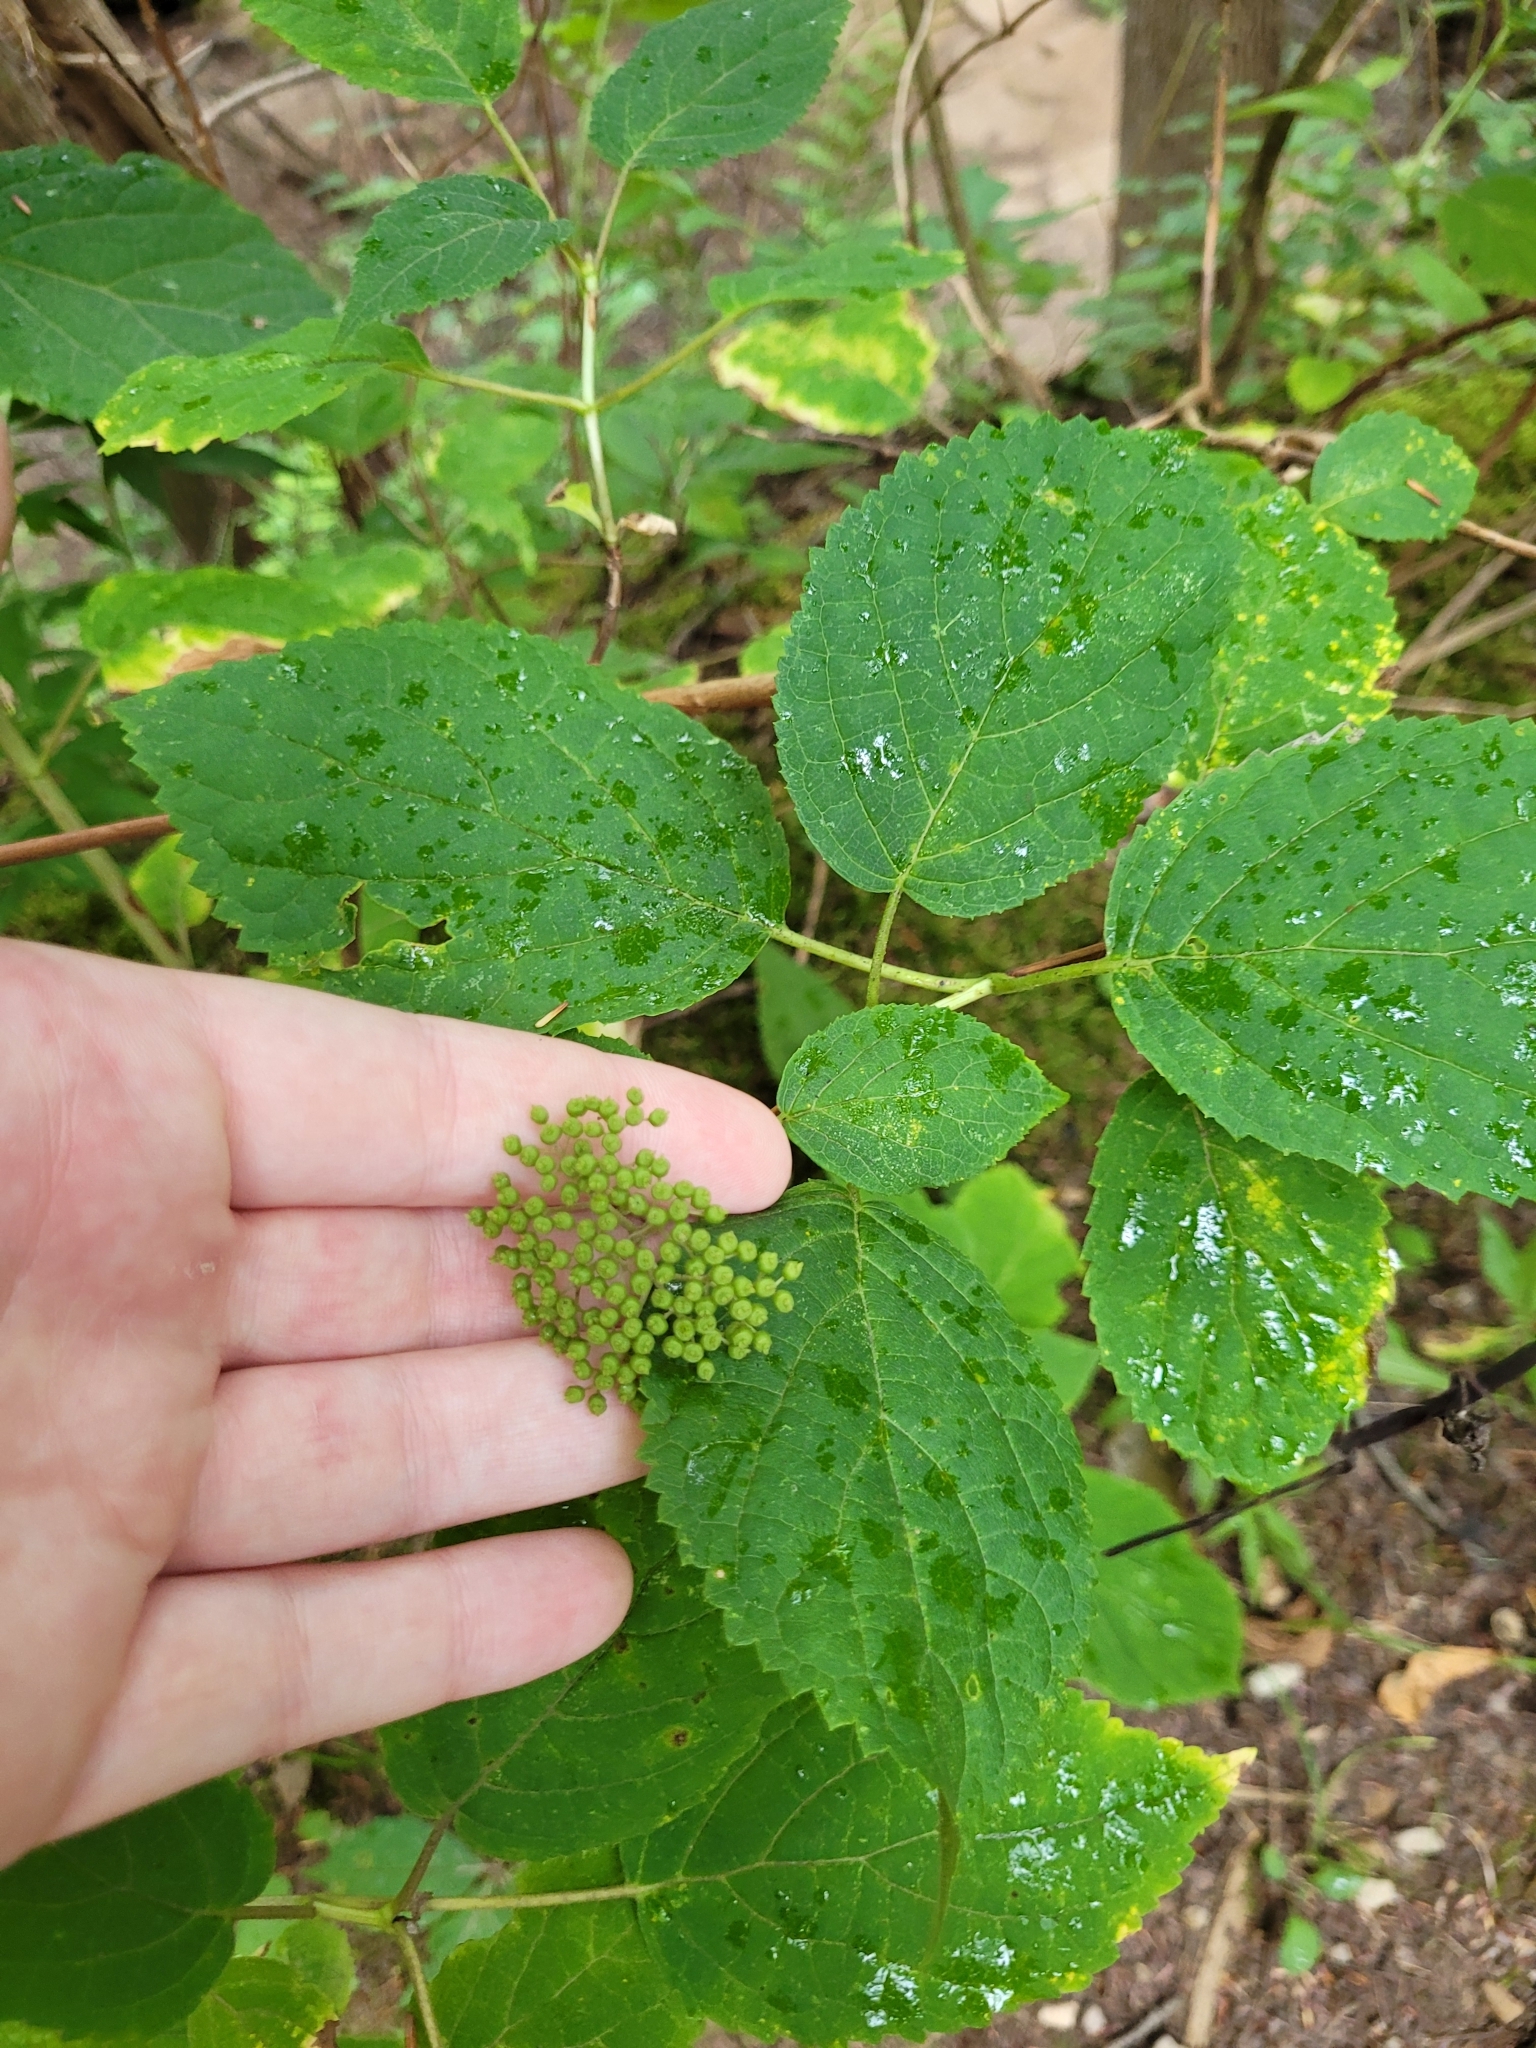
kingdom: Plantae
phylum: Tracheophyta
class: Magnoliopsida
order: Cornales
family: Hydrangeaceae
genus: Hydrangea
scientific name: Hydrangea arborescens
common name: Sevenbark
